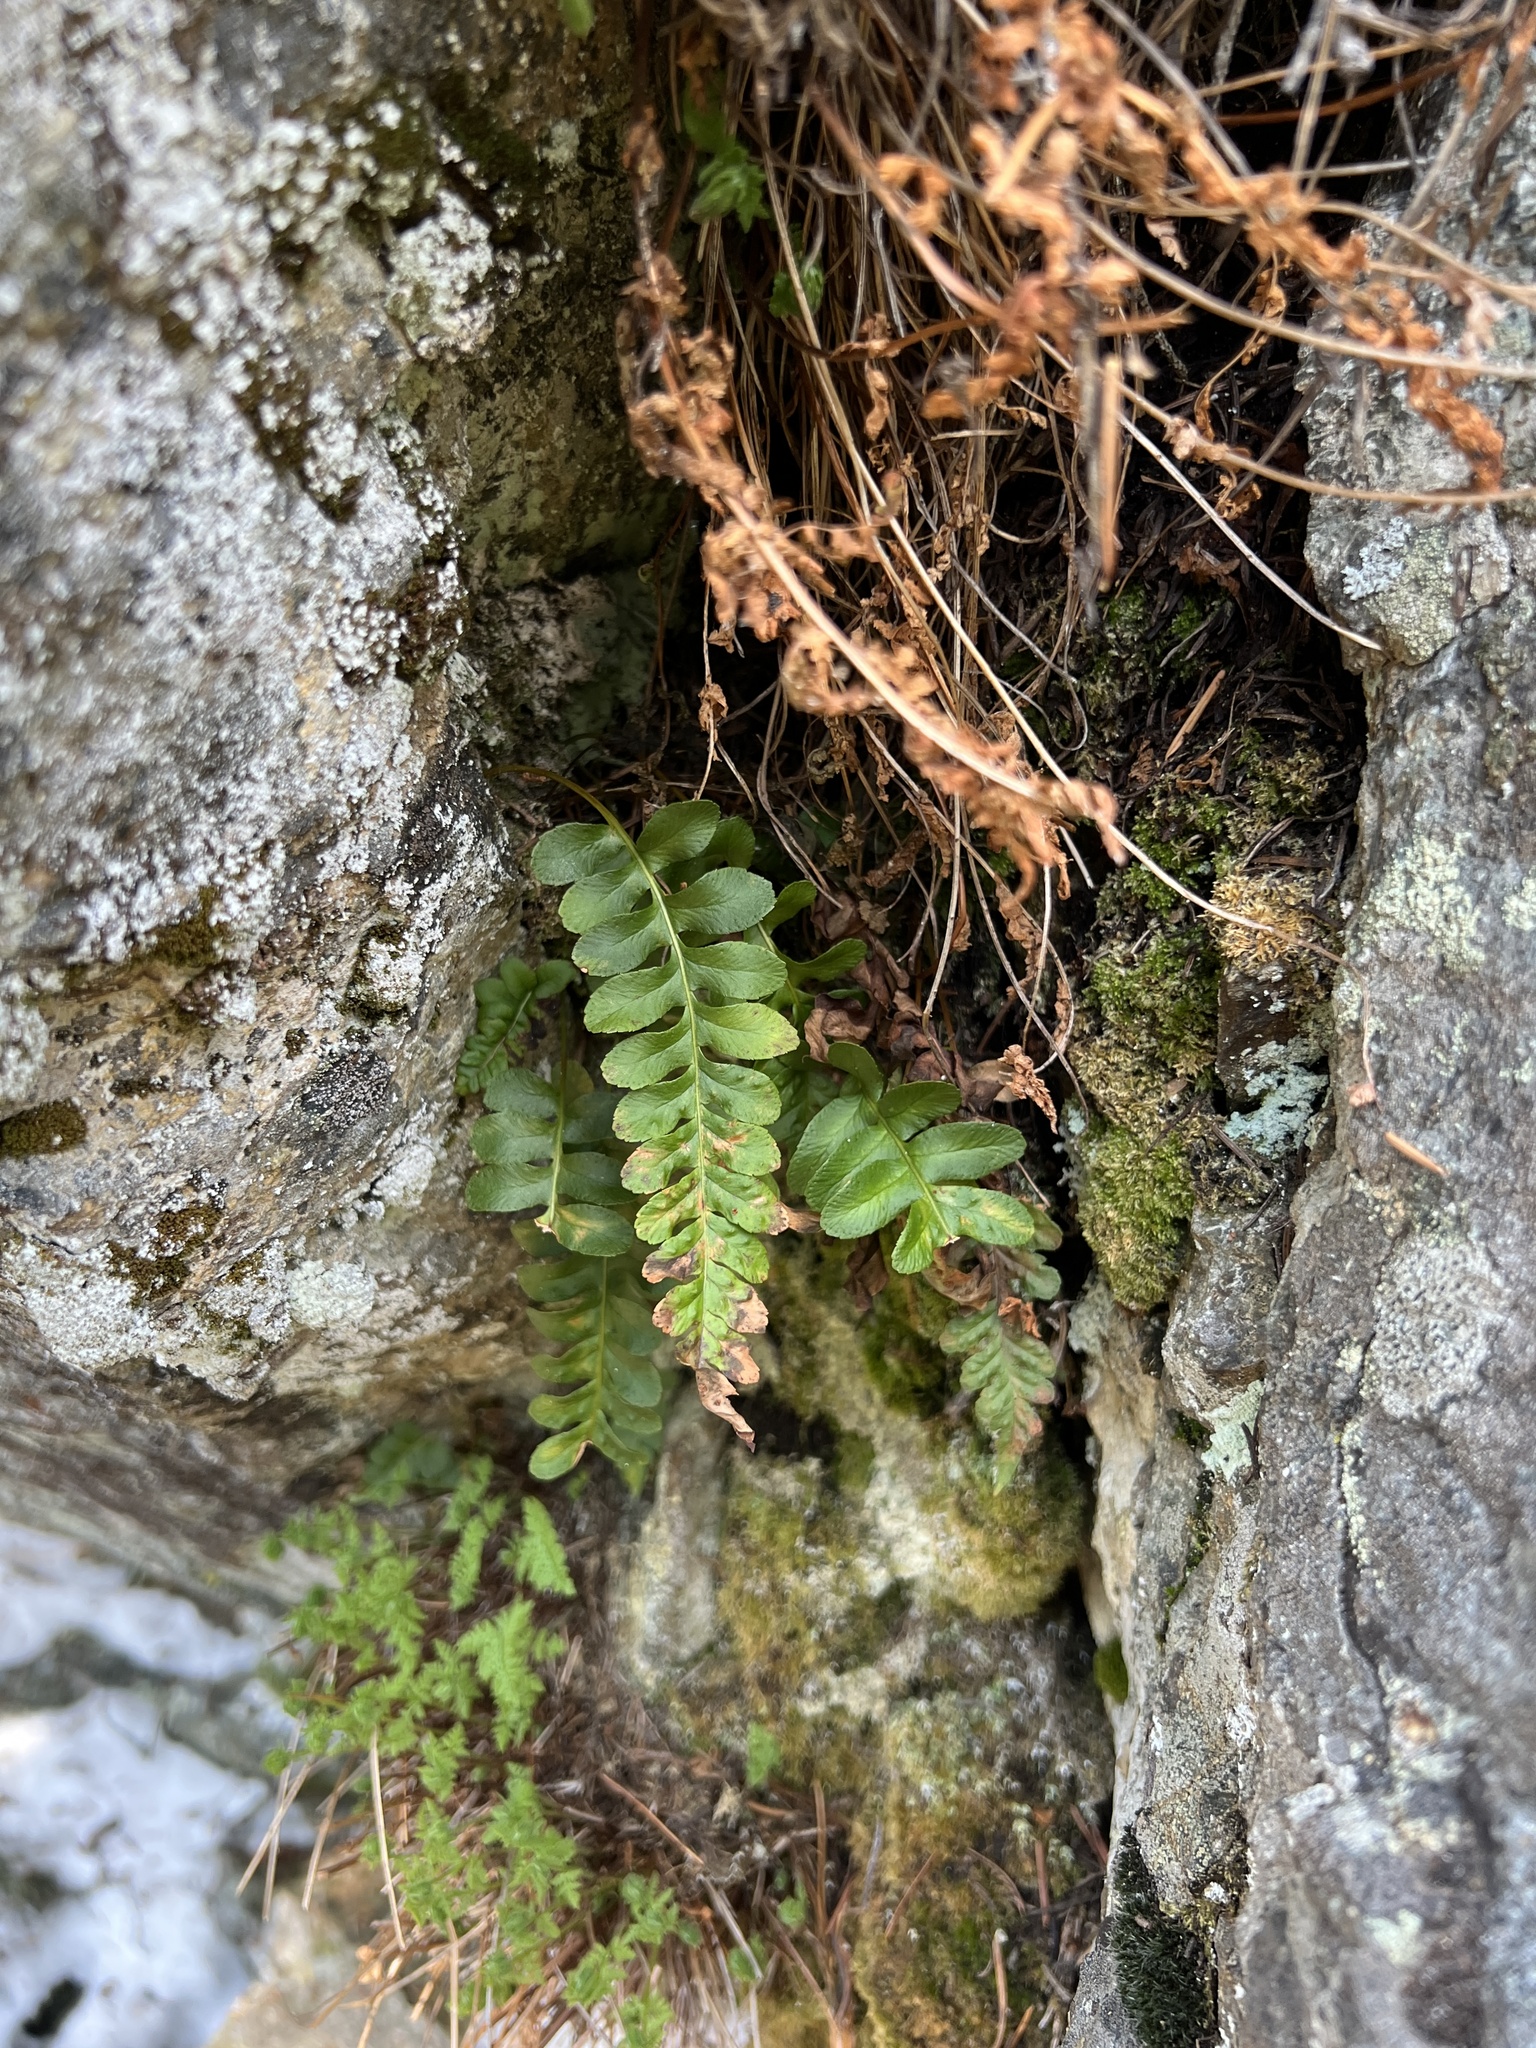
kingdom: Plantae
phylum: Tracheophyta
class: Polypodiopsida
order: Polypodiales
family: Polypodiaceae
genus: Polypodium
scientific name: Polypodium amorphum
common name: Pacific polypody
